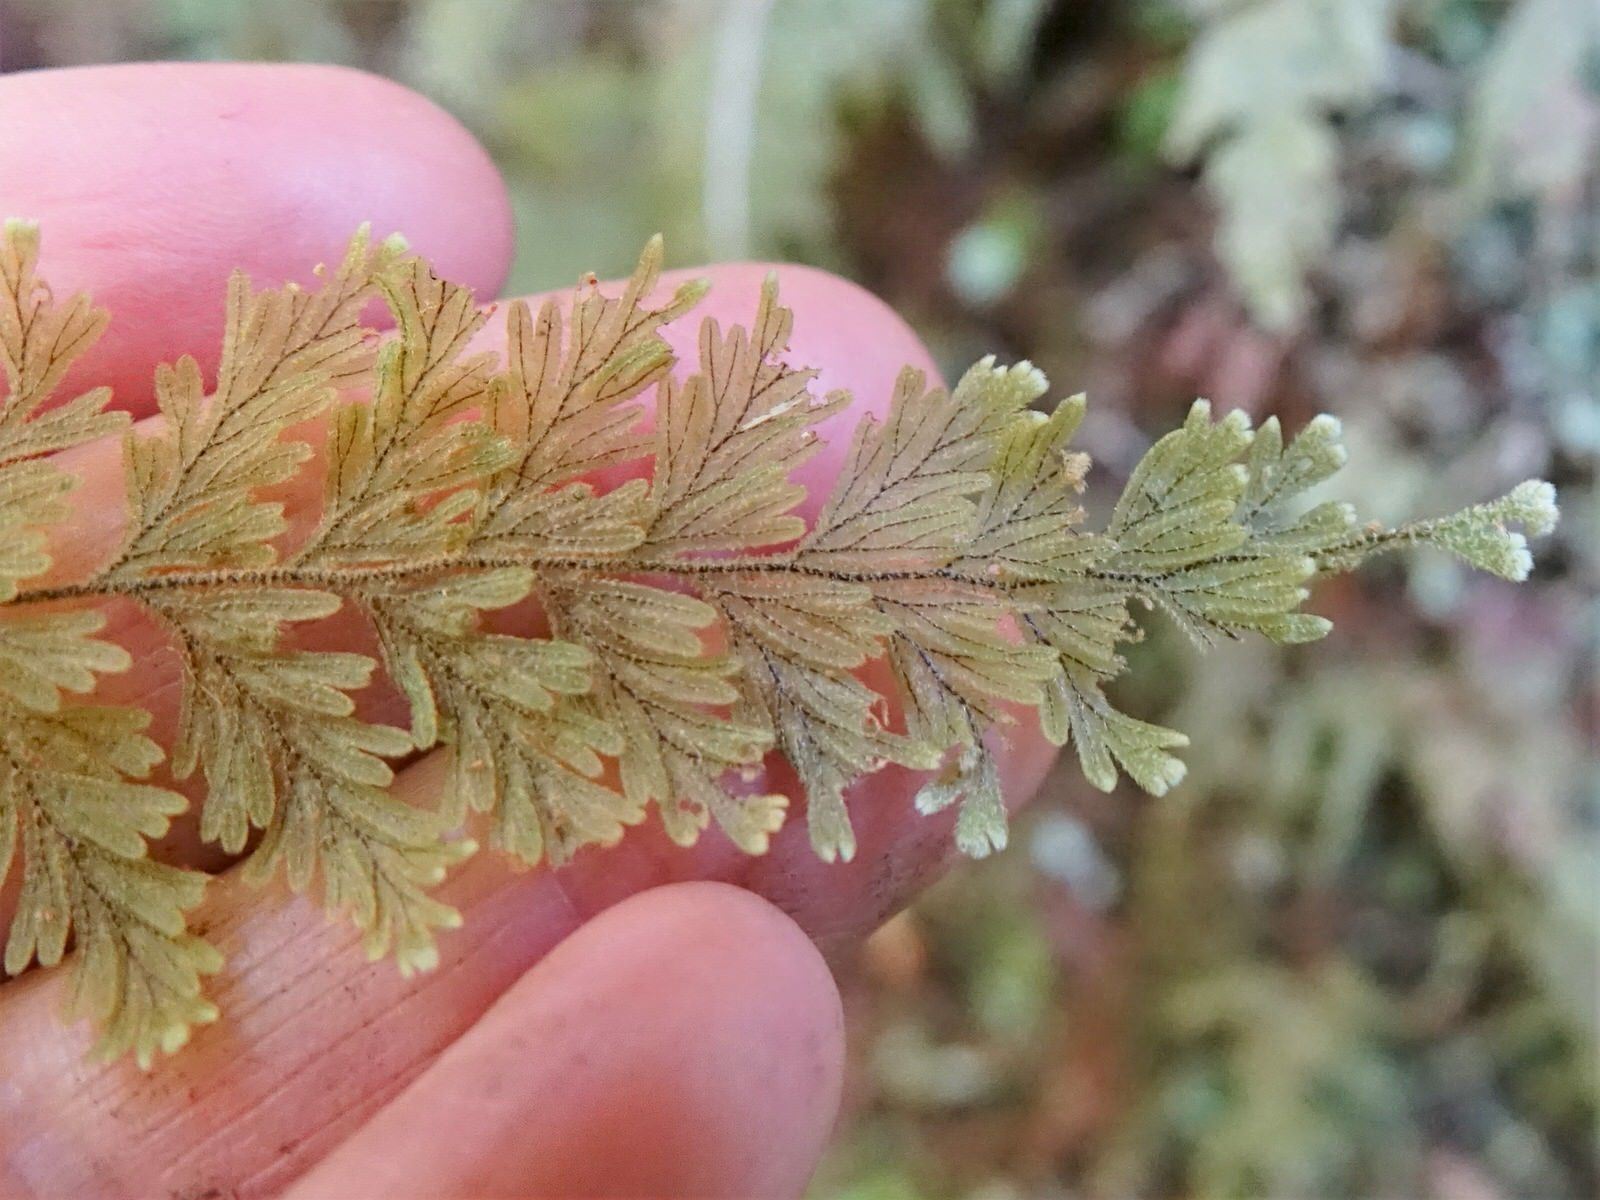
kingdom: Plantae
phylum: Tracheophyta
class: Polypodiopsida
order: Hymenophyllales
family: Hymenophyllaceae
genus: Hymenophyllum
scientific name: Hymenophyllum frankliniae
